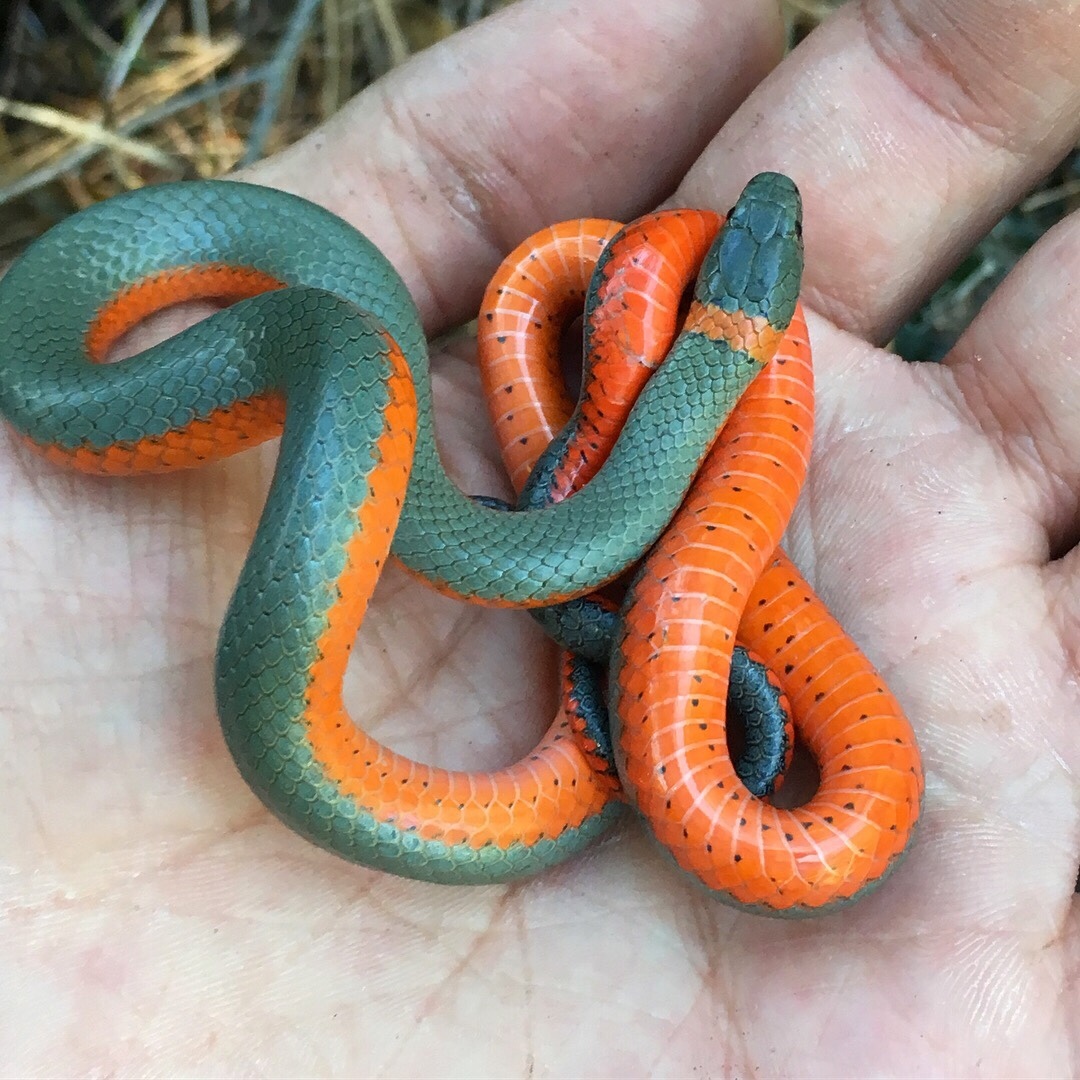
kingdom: Animalia
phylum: Chordata
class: Squamata
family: Colubridae
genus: Diadophis
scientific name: Diadophis punctatus
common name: Ringneck snake
